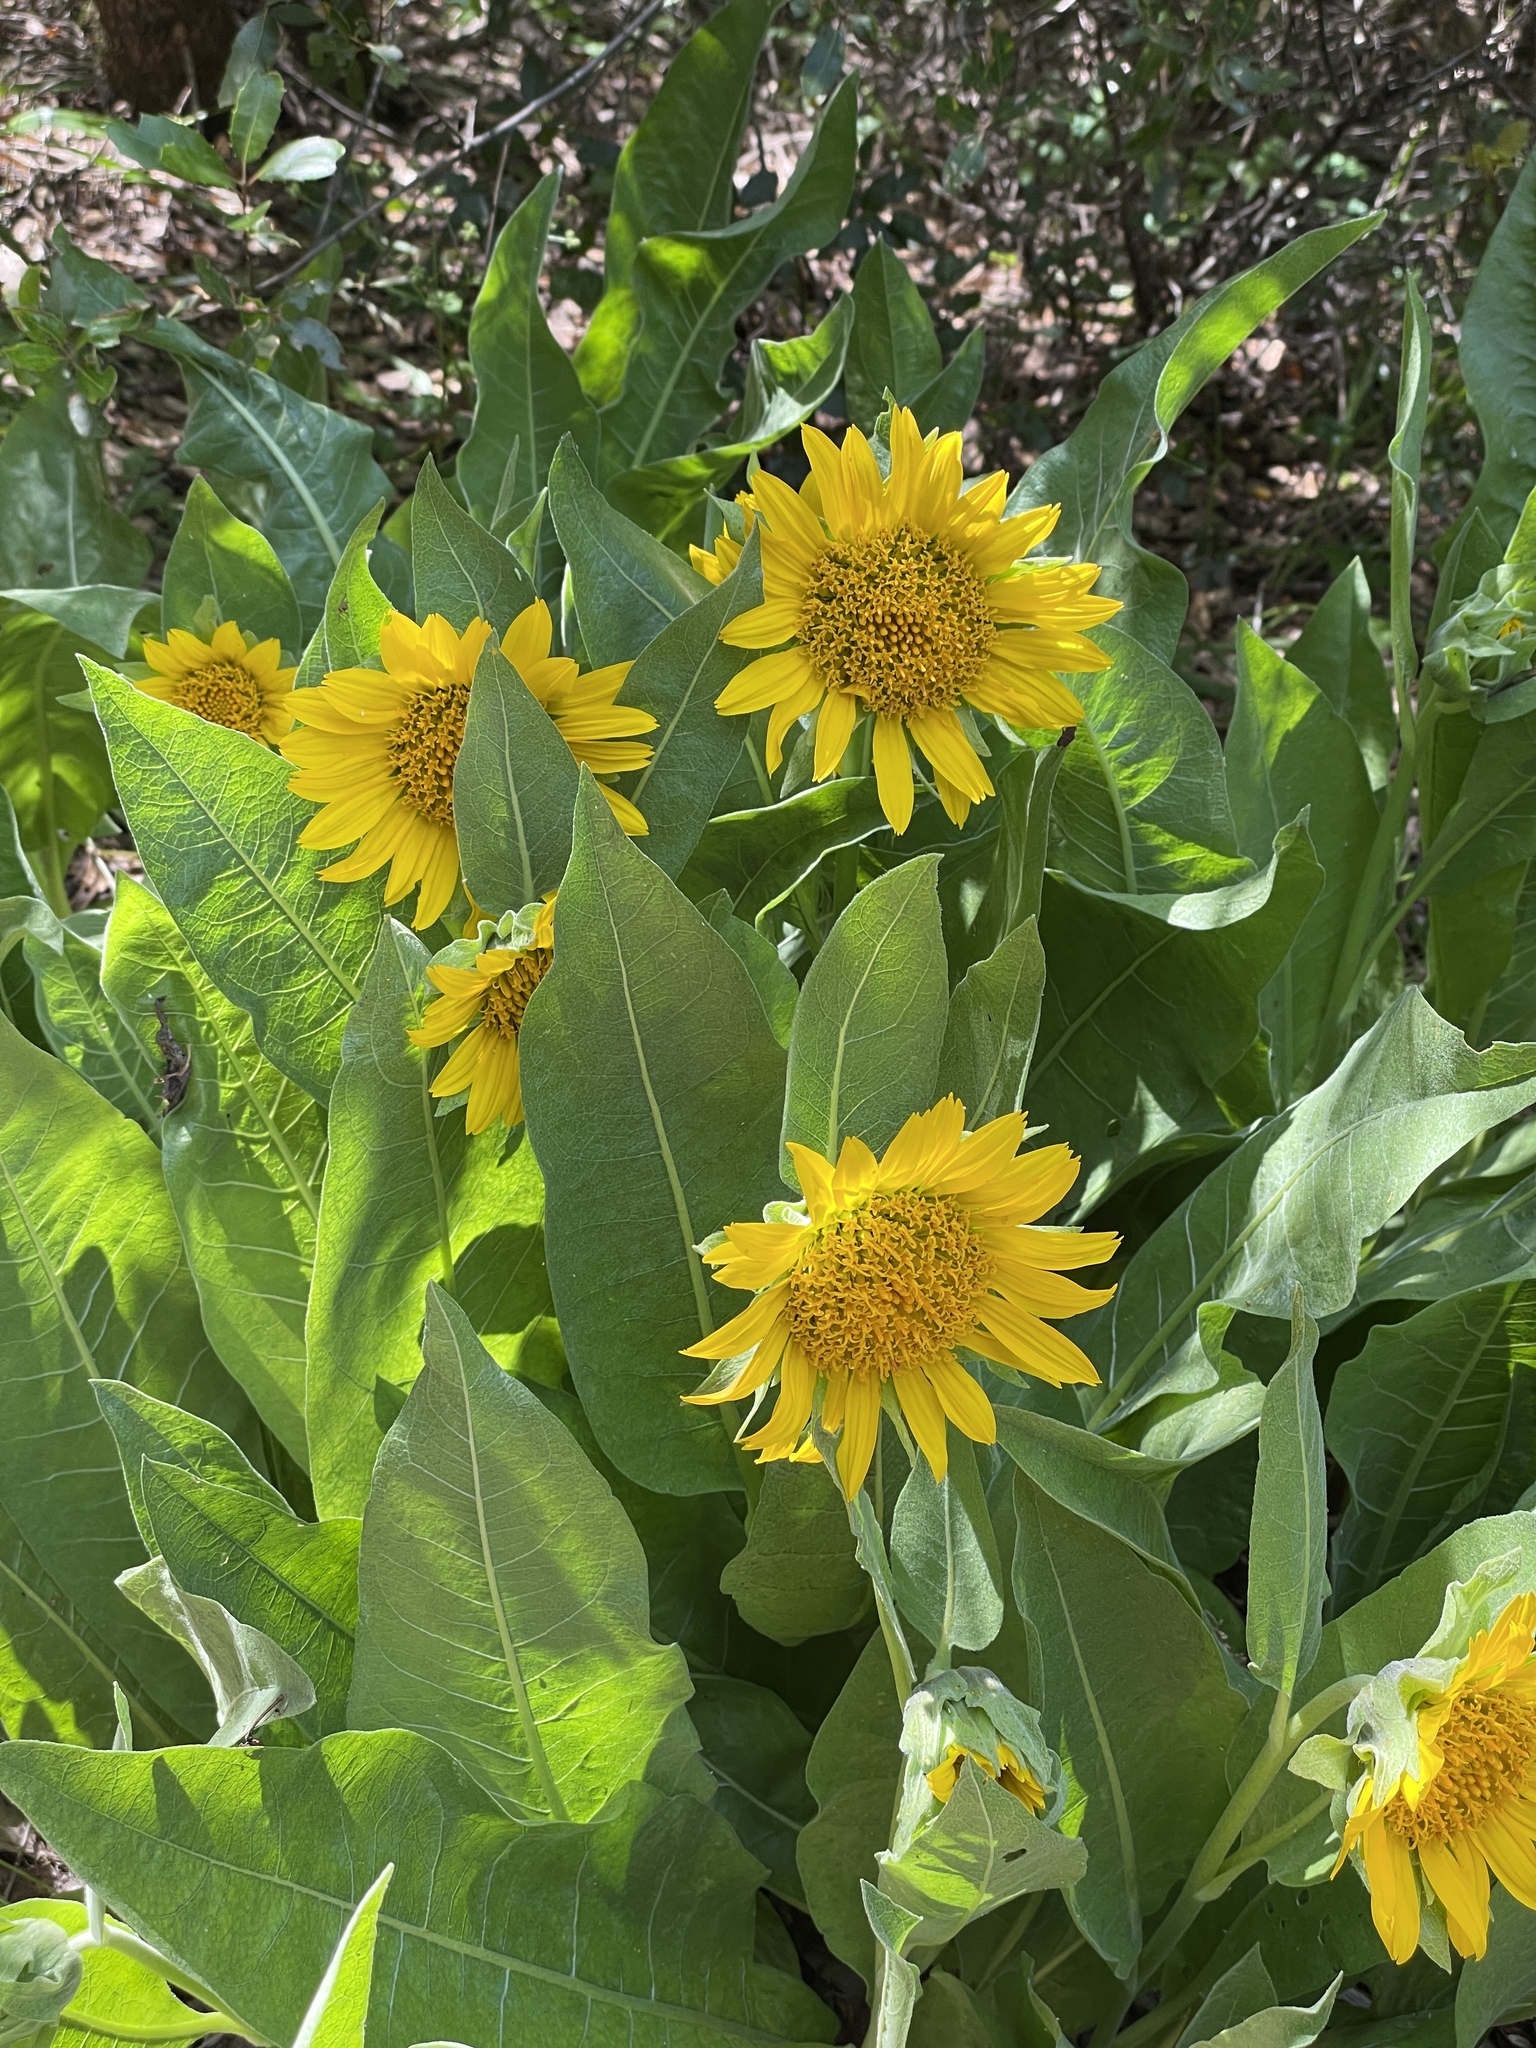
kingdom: Plantae
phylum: Tracheophyta
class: Magnoliopsida
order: Asterales
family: Asteraceae
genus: Wyethia
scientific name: Wyethia glabra
